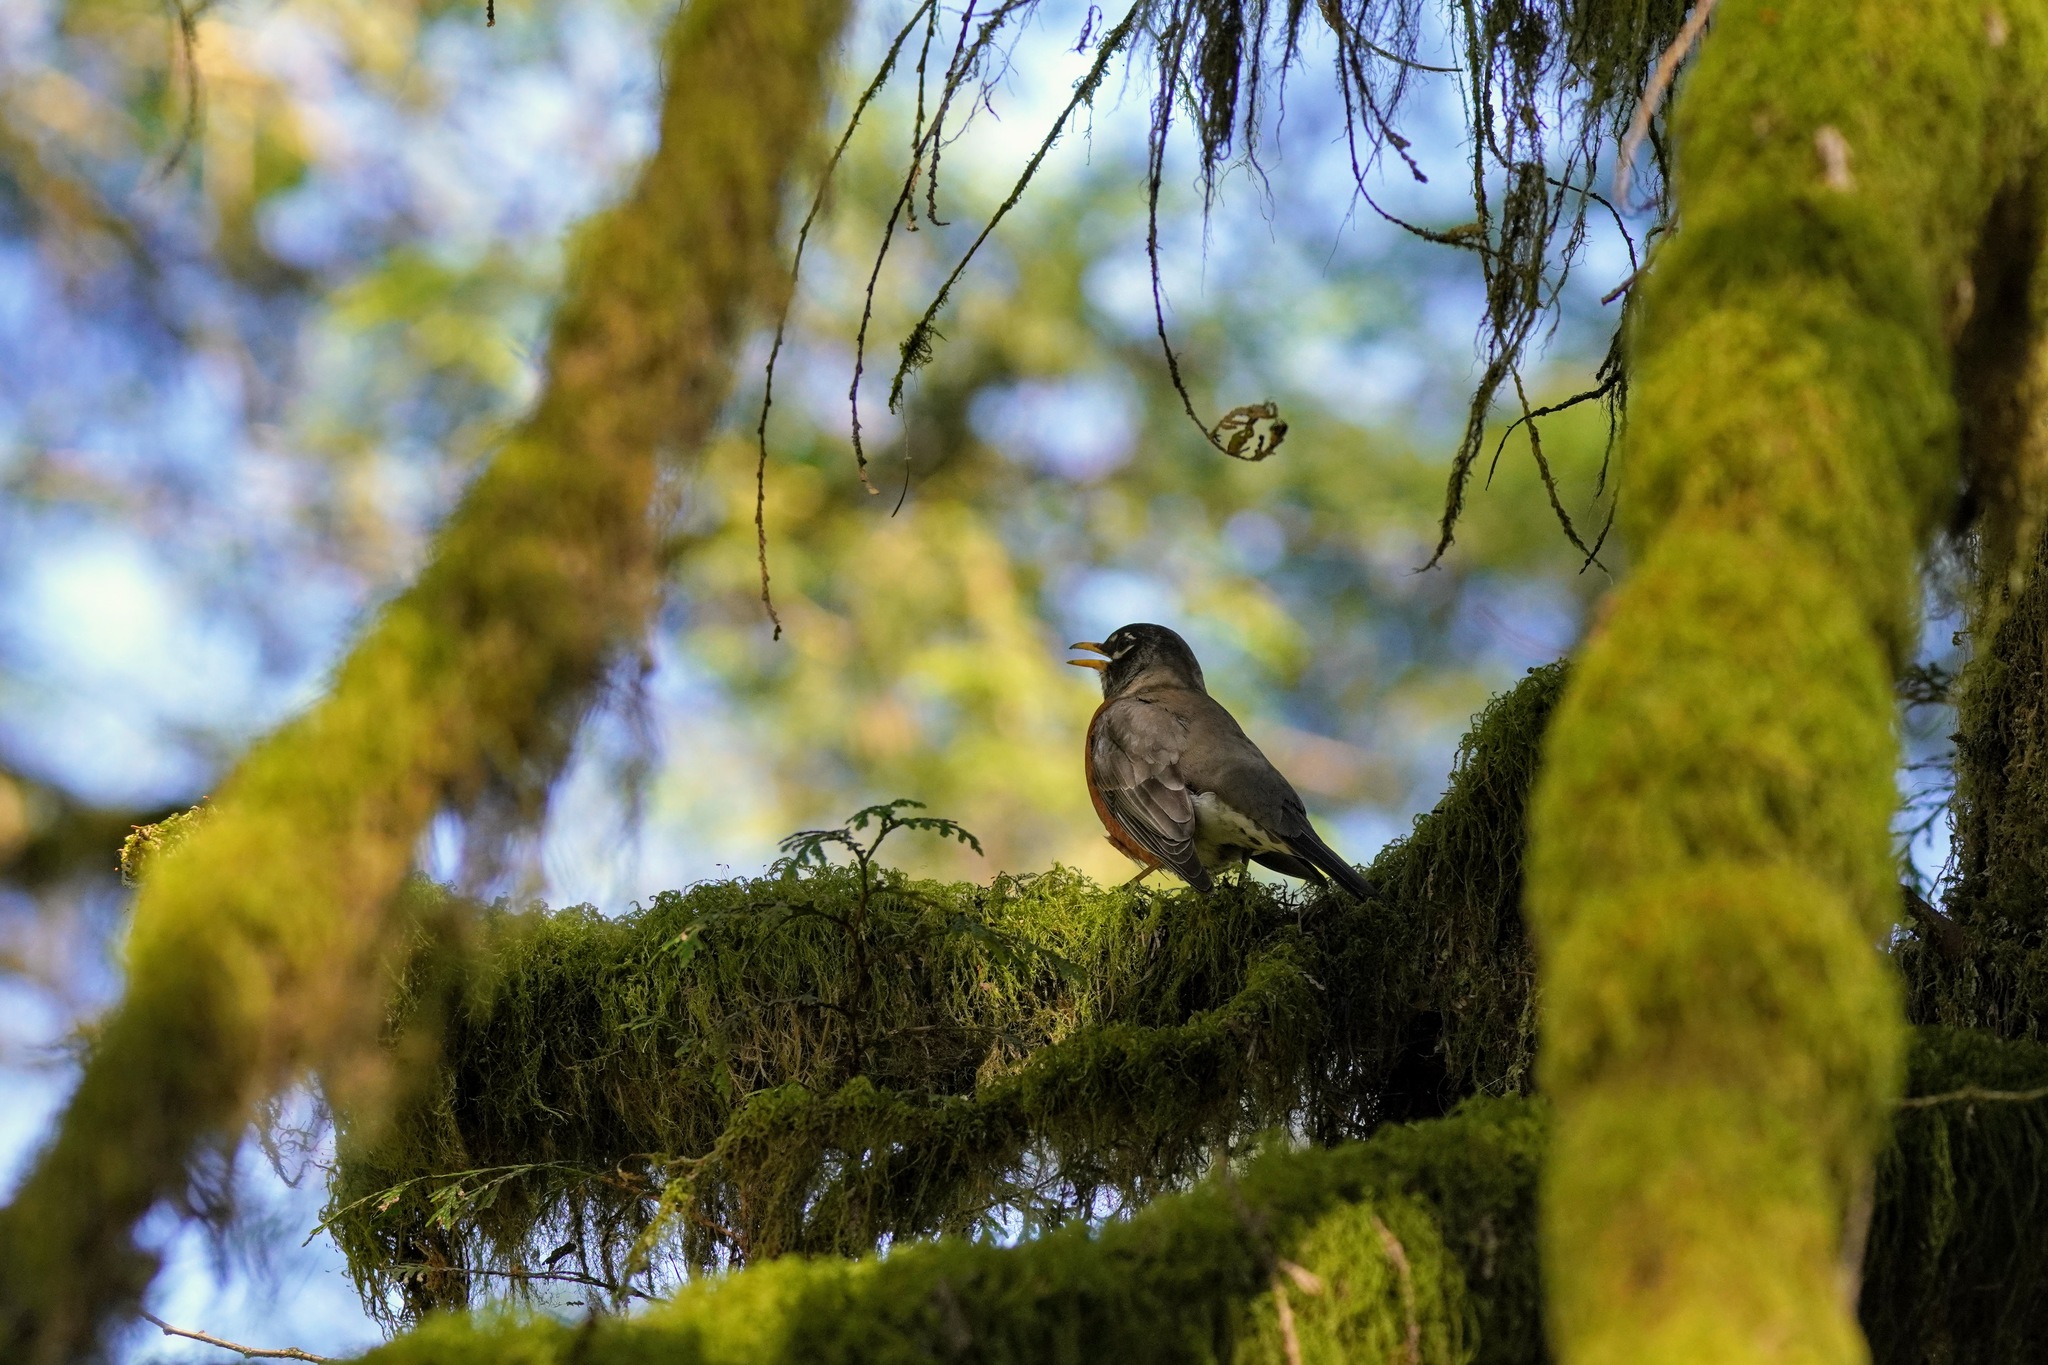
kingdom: Animalia
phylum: Chordata
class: Aves
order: Passeriformes
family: Turdidae
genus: Turdus
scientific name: Turdus migratorius
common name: American robin
